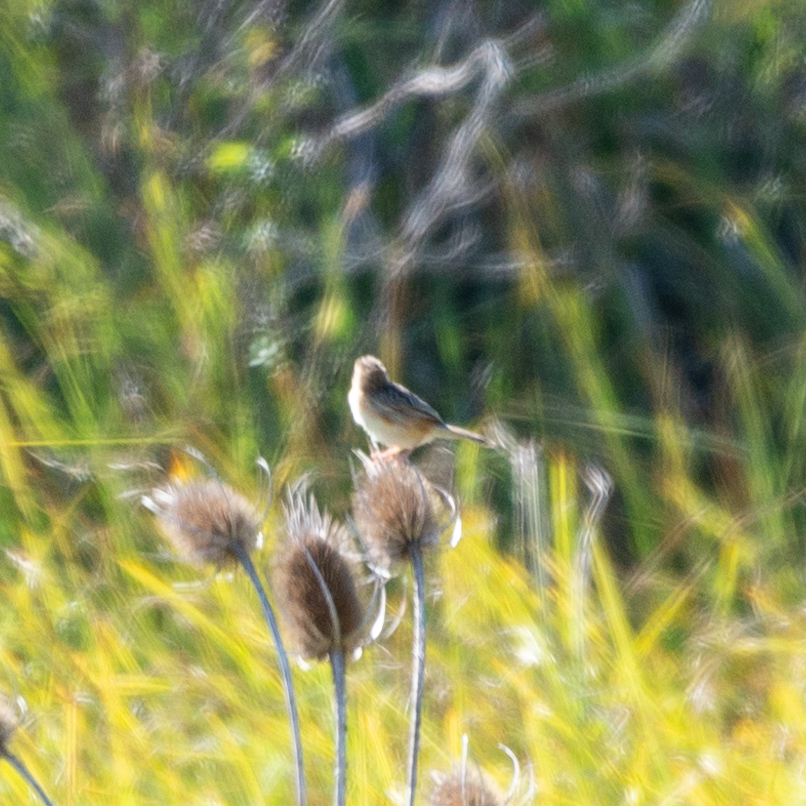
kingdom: Animalia
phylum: Chordata
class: Aves
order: Passeriformes
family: Cisticolidae
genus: Cisticola
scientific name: Cisticola juncidis
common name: Zitting cisticola
